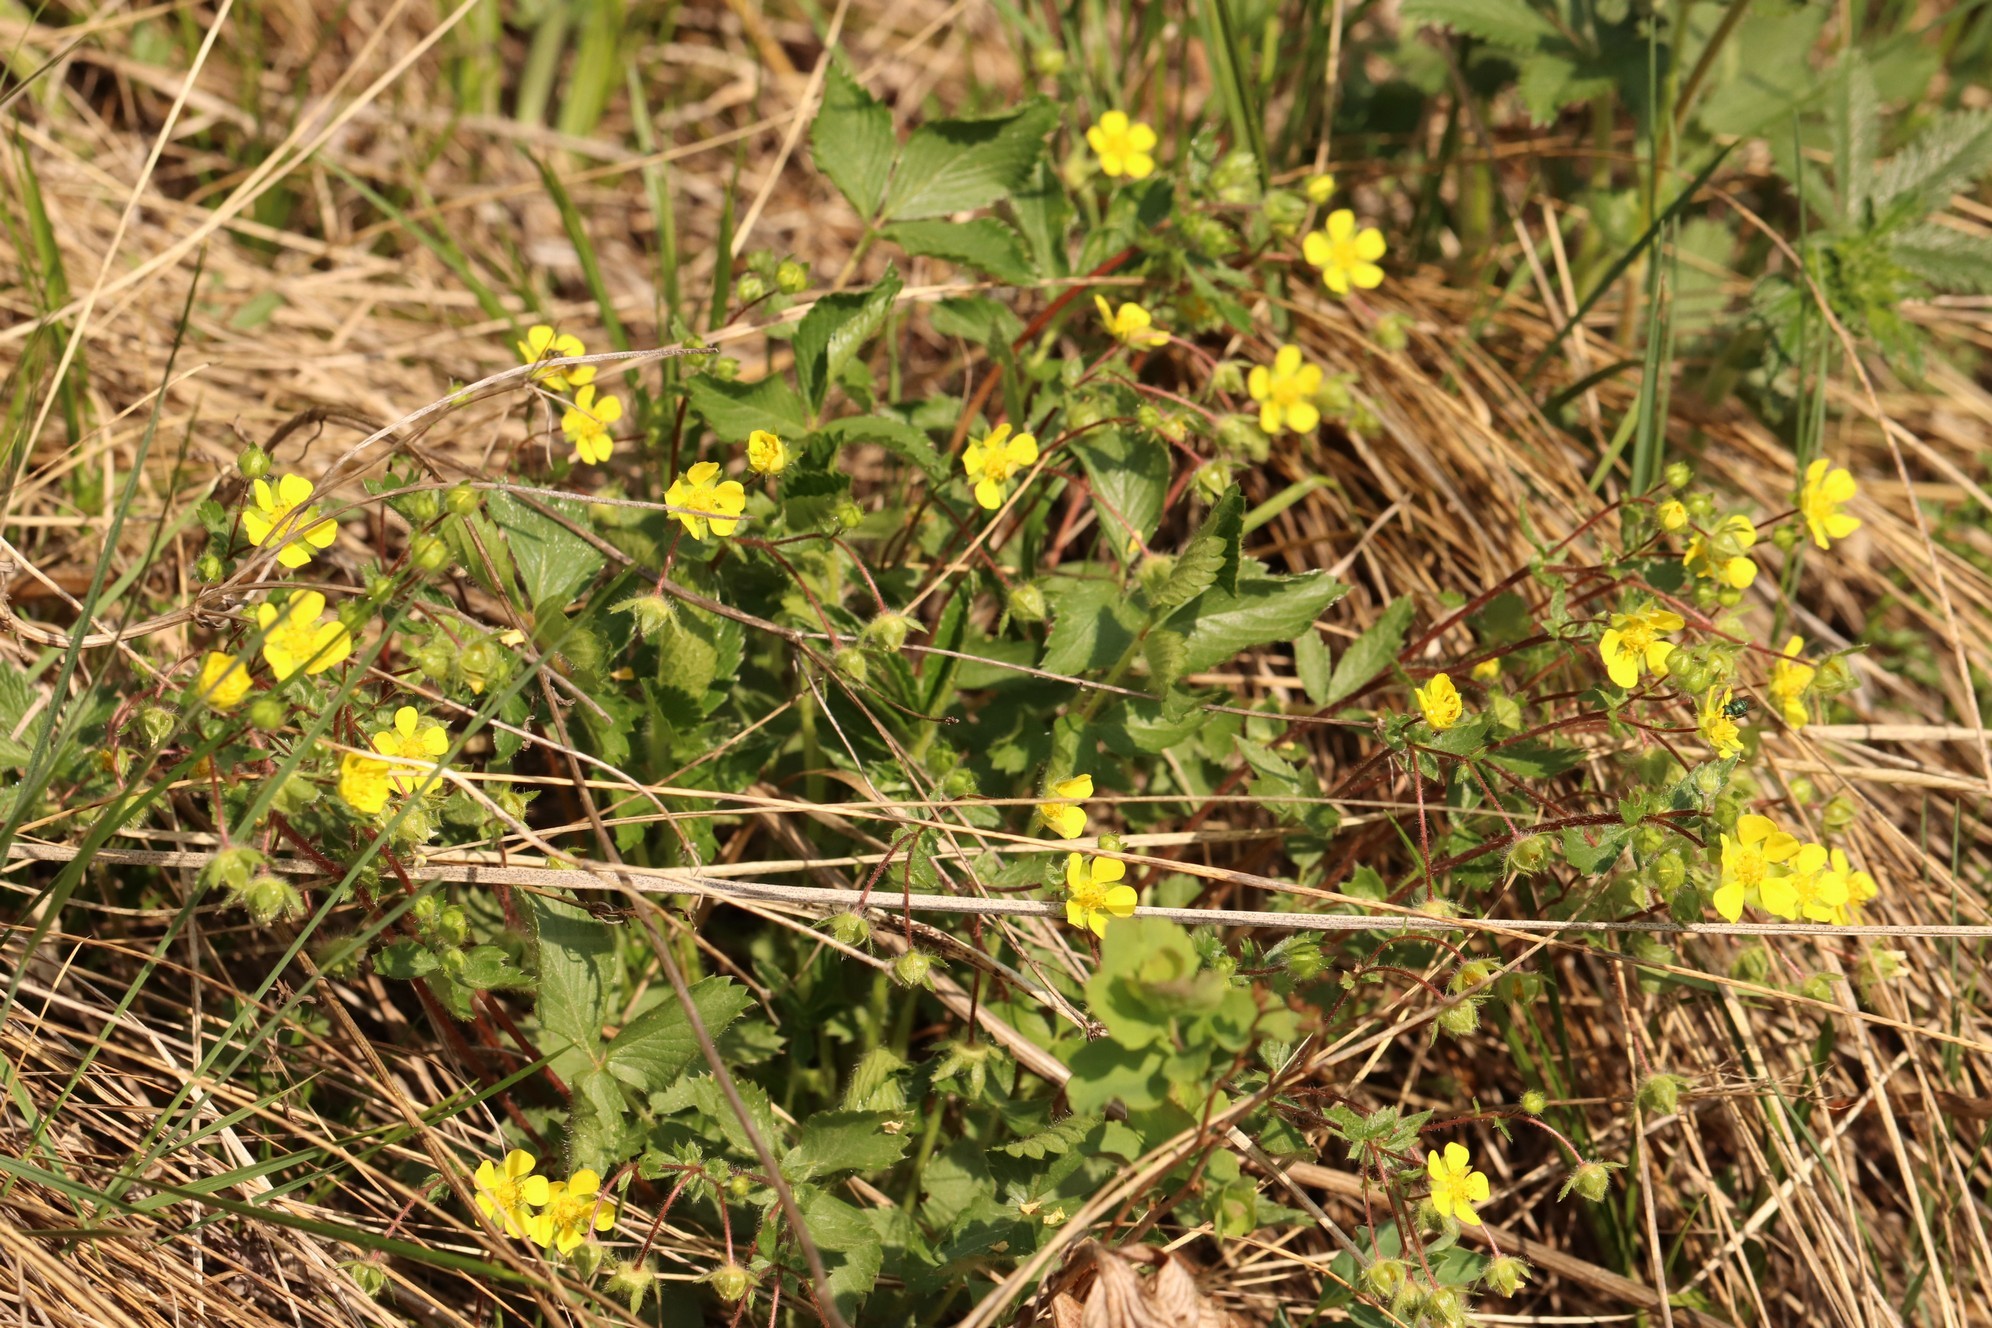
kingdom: Plantae
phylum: Tracheophyta
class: Magnoliopsida
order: Rosales
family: Rosaceae
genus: Potentilla
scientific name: Potentilla fragarioides
